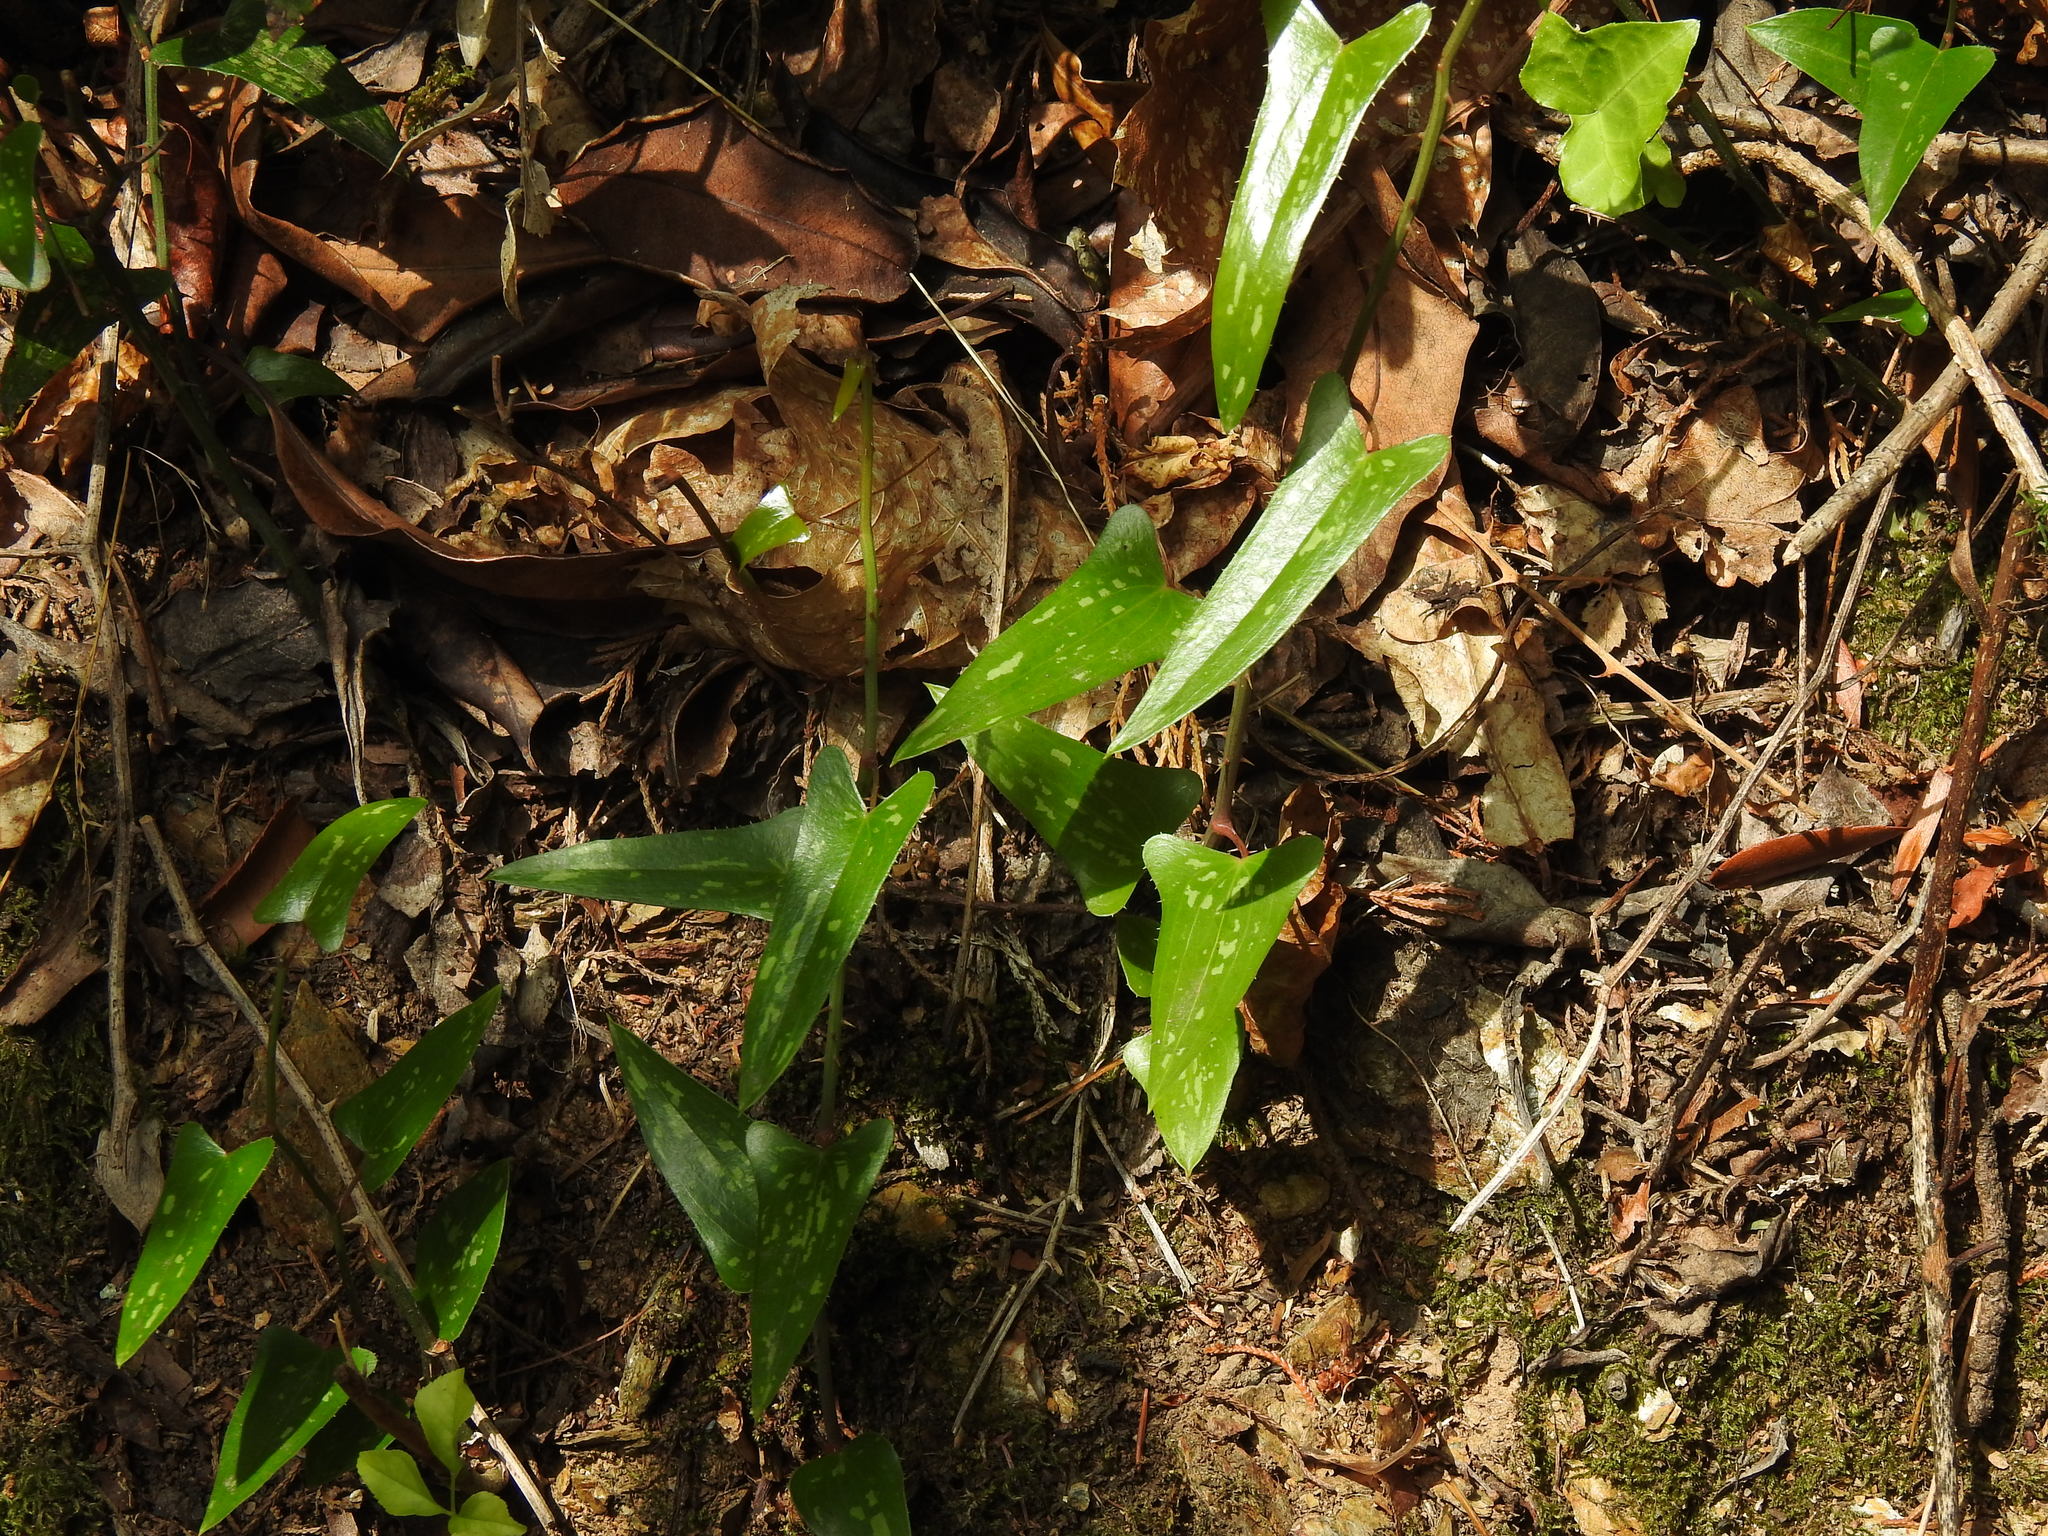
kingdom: Plantae
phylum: Tracheophyta
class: Liliopsida
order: Liliales
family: Smilacaceae
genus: Smilax
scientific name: Smilax aspera
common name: Common smilax
